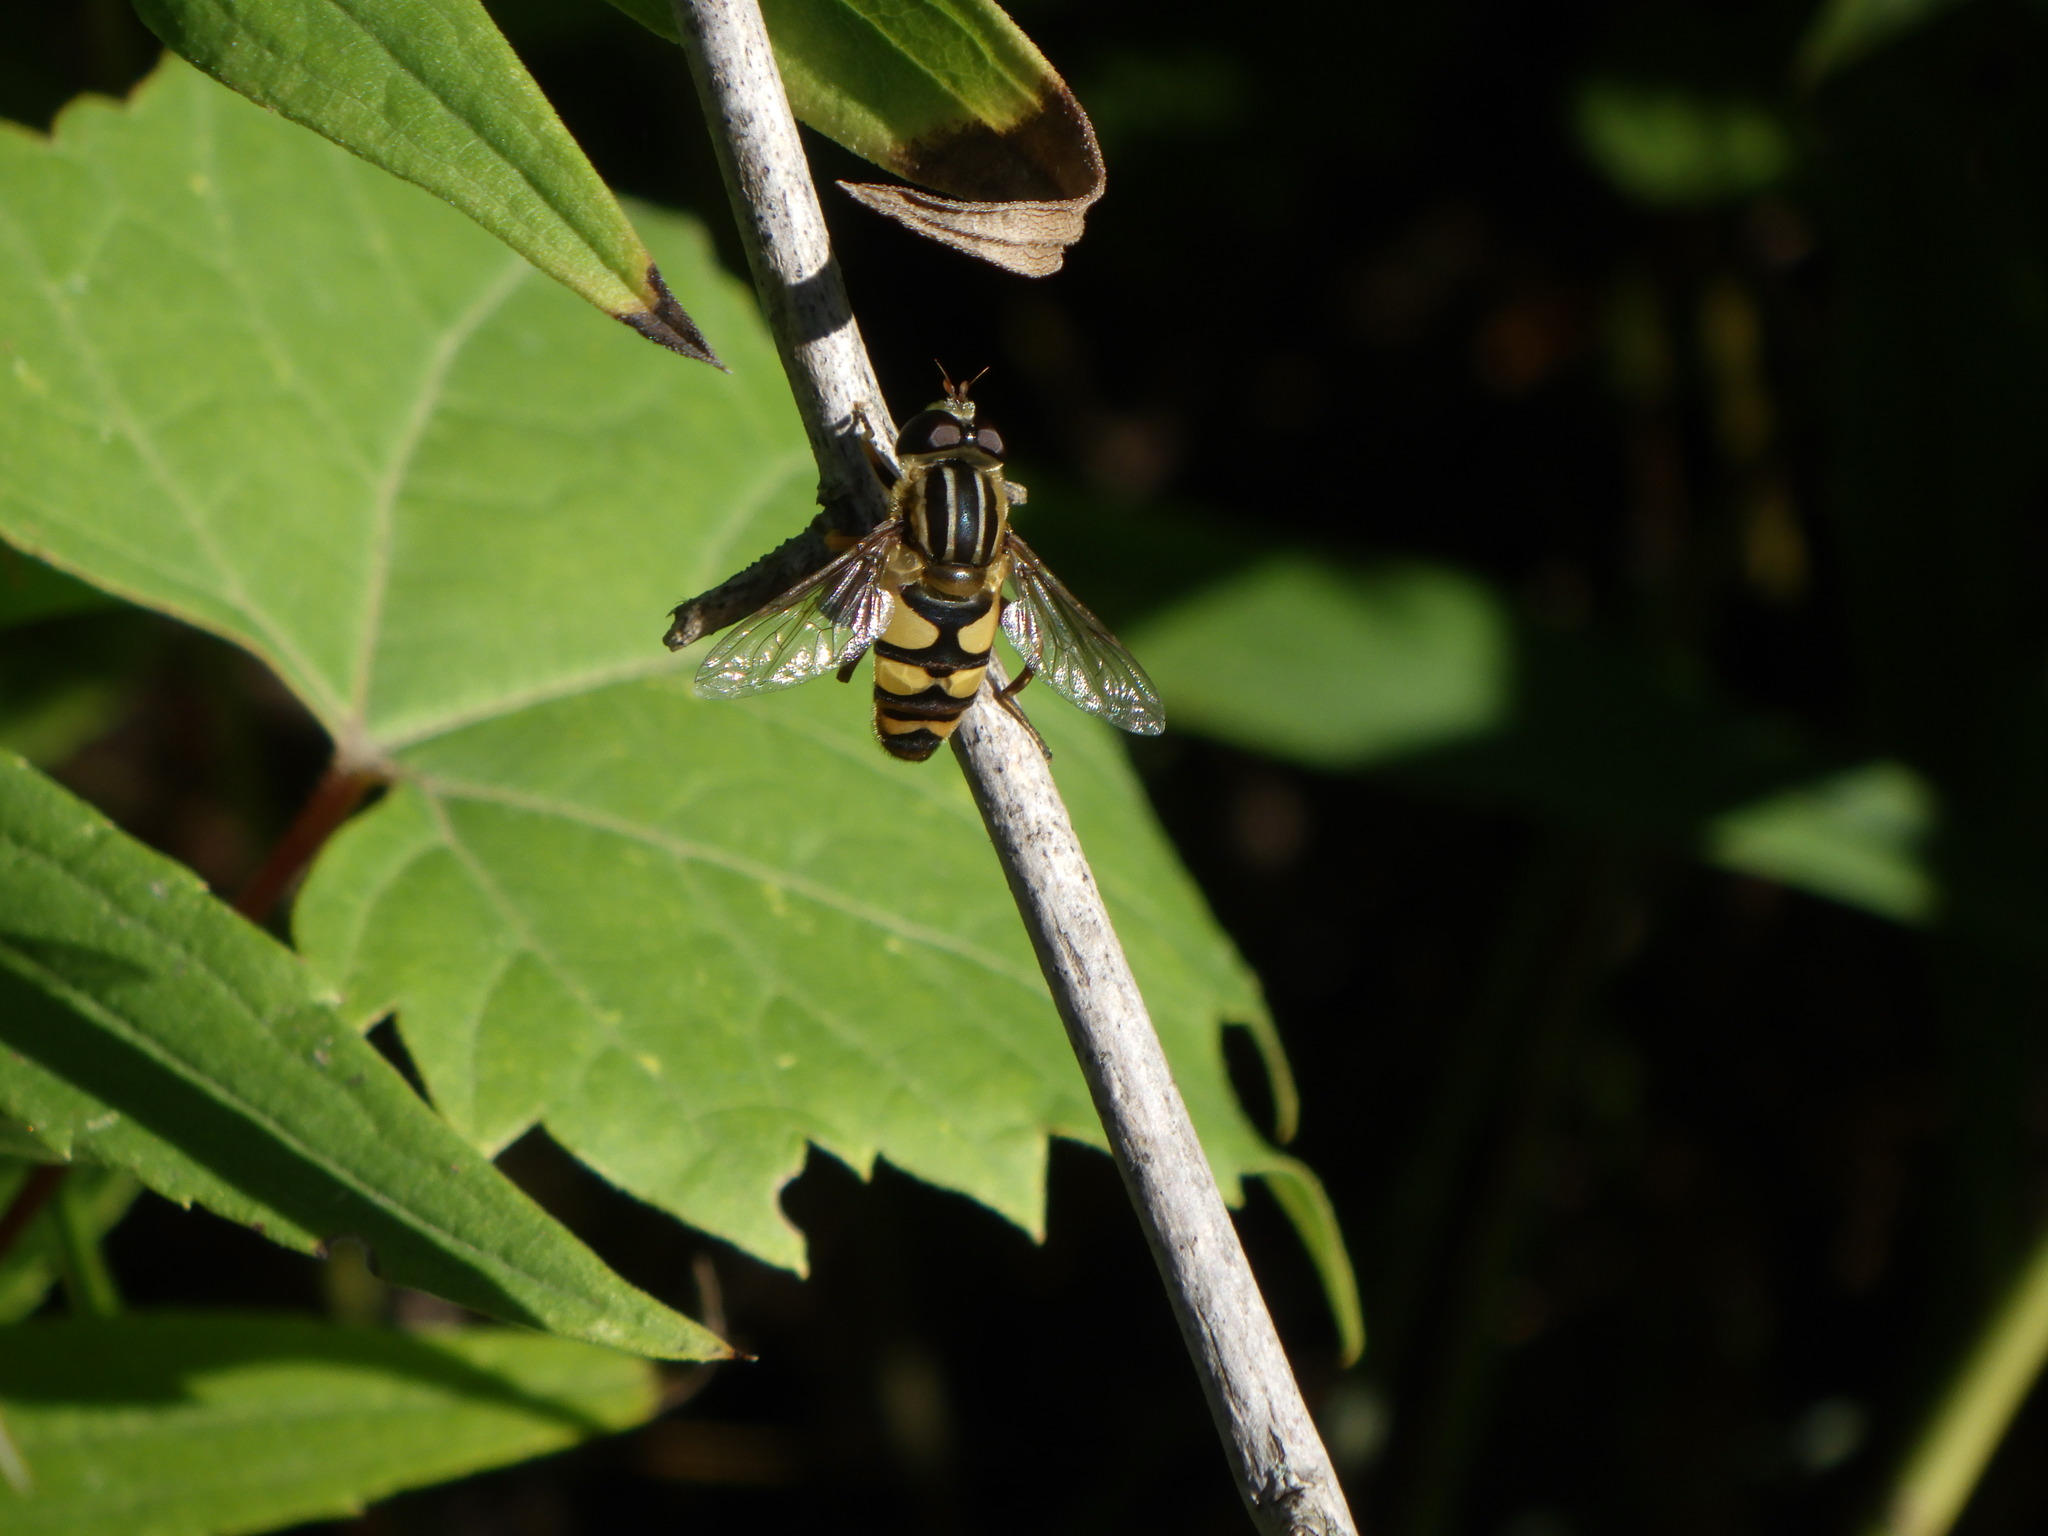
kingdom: Animalia
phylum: Arthropoda
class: Insecta
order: Diptera
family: Syrphidae
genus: Helophilus
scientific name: Helophilus fasciatus
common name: Narrow-headed marsh fly
